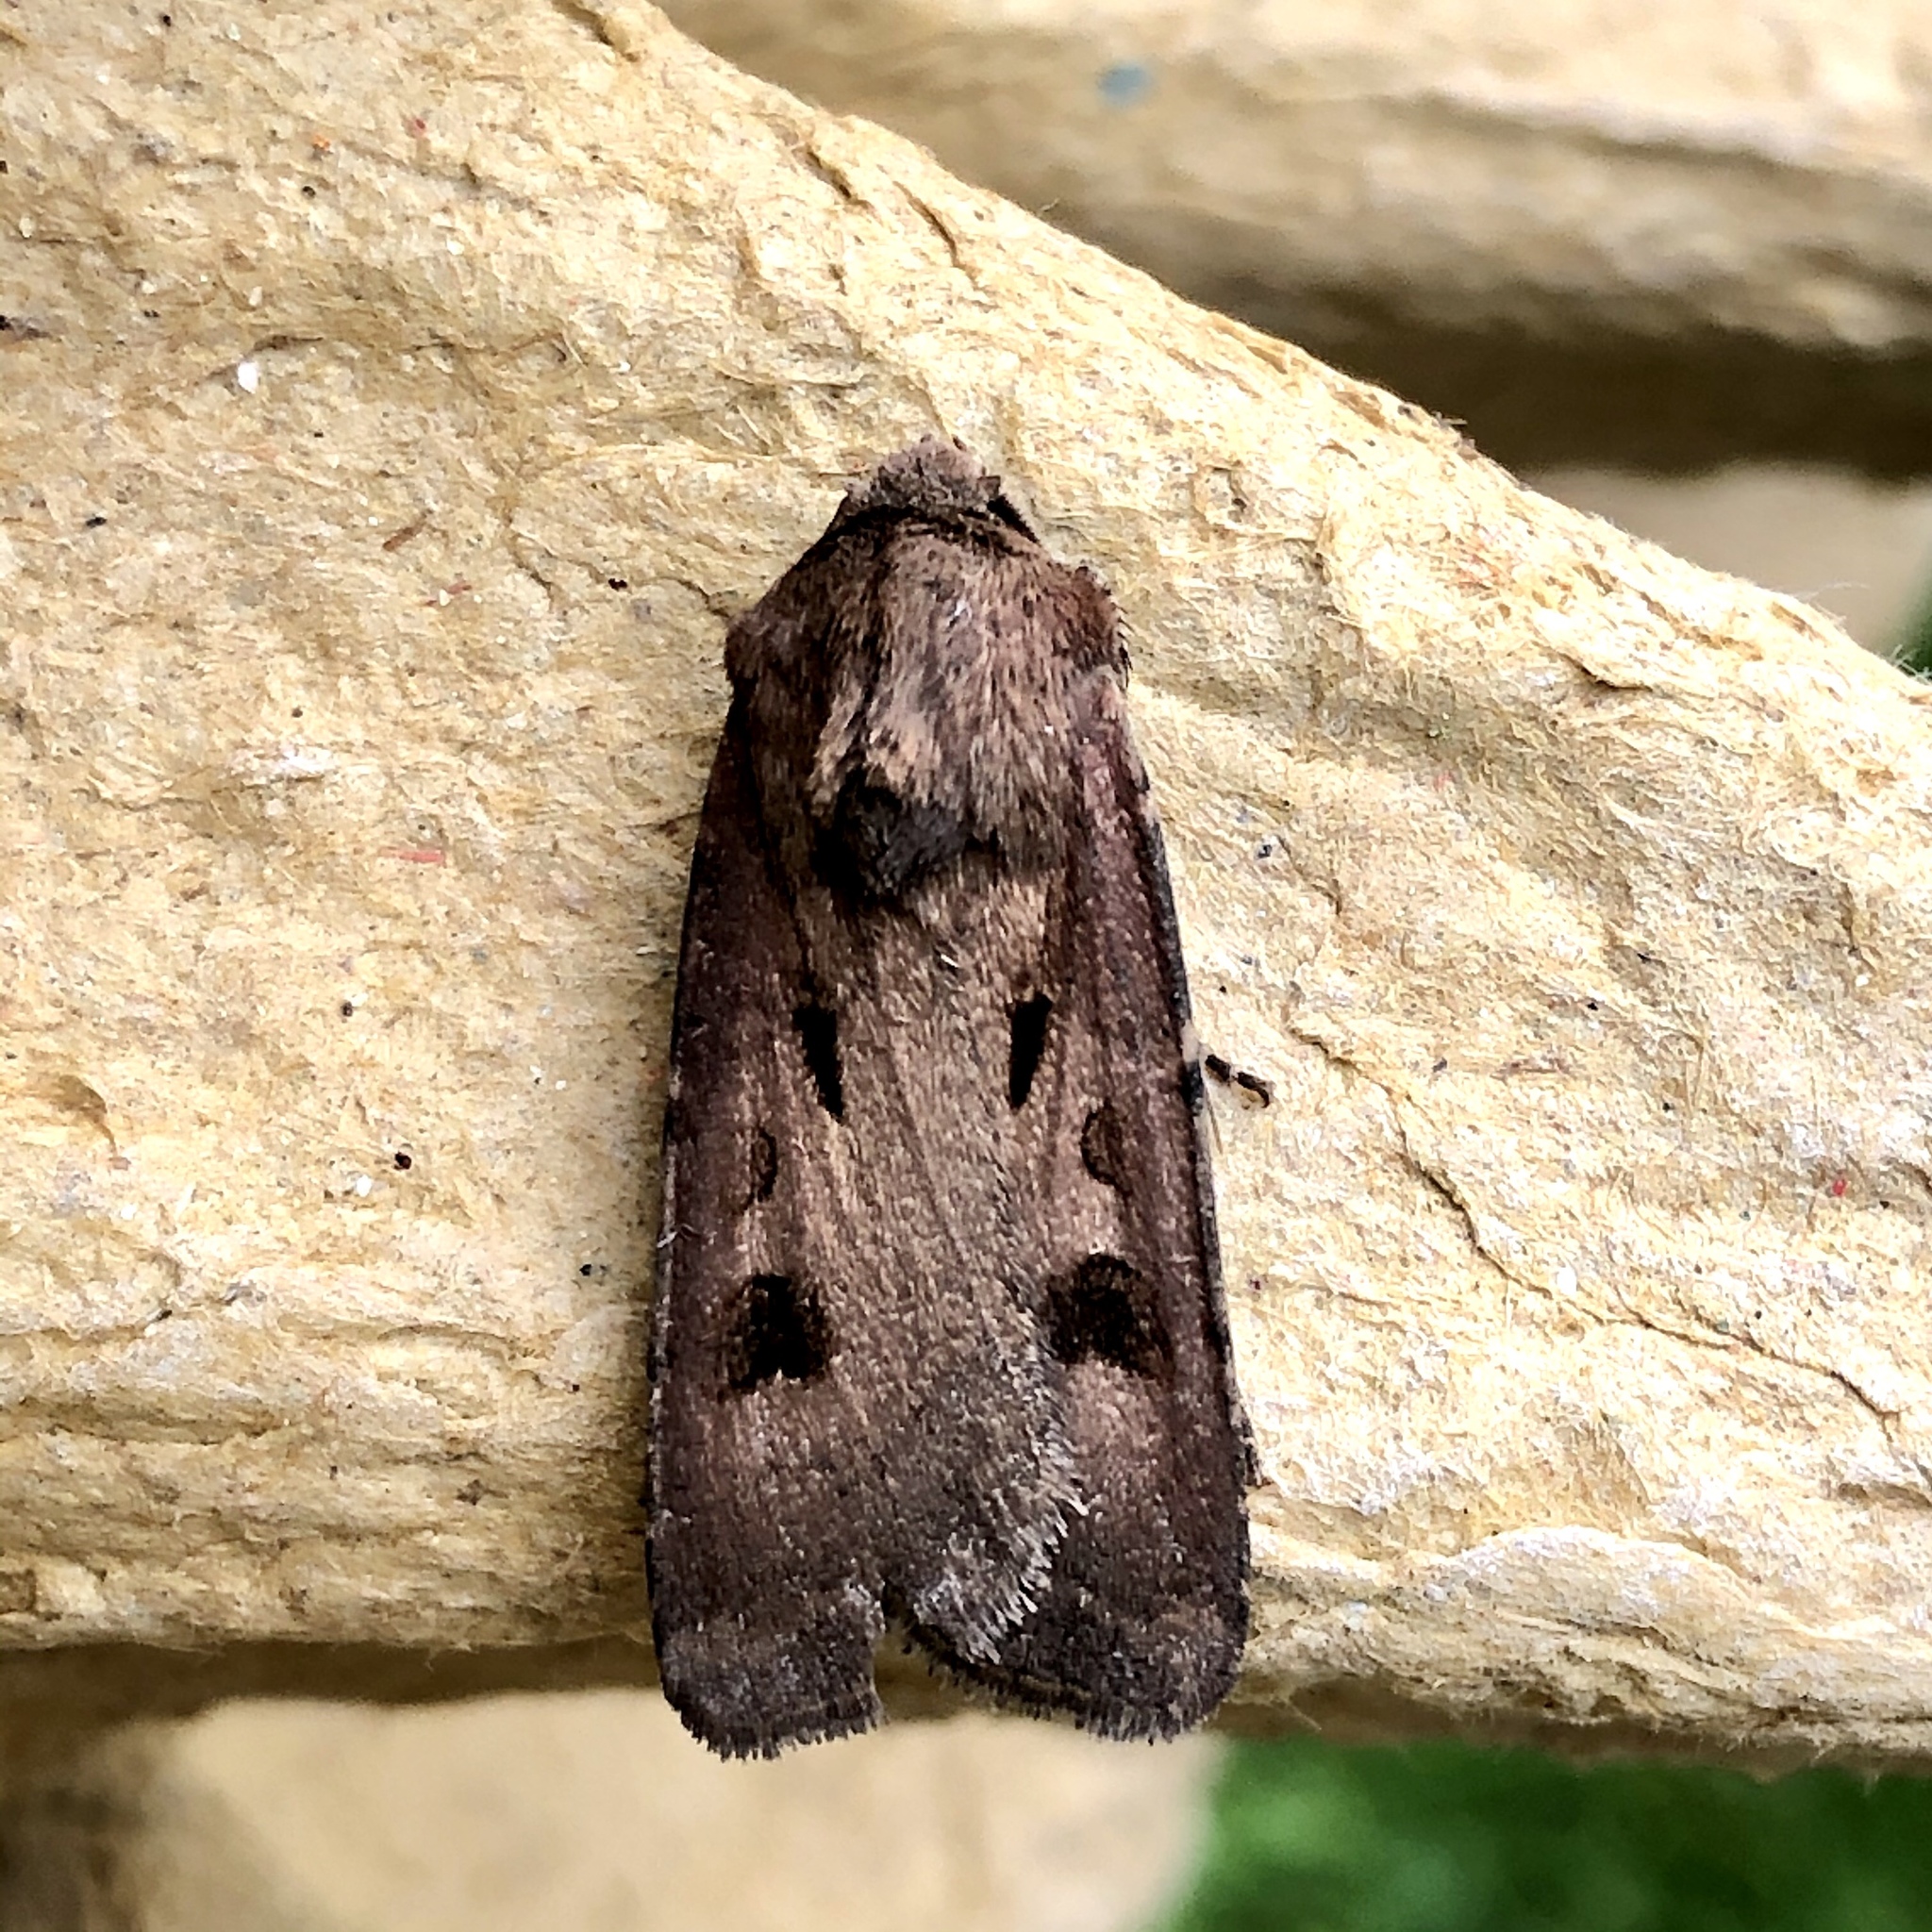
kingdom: Animalia
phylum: Arthropoda
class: Insecta
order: Lepidoptera
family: Noctuidae
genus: Agrotis
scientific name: Agrotis exclamationis
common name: Heart and dart
